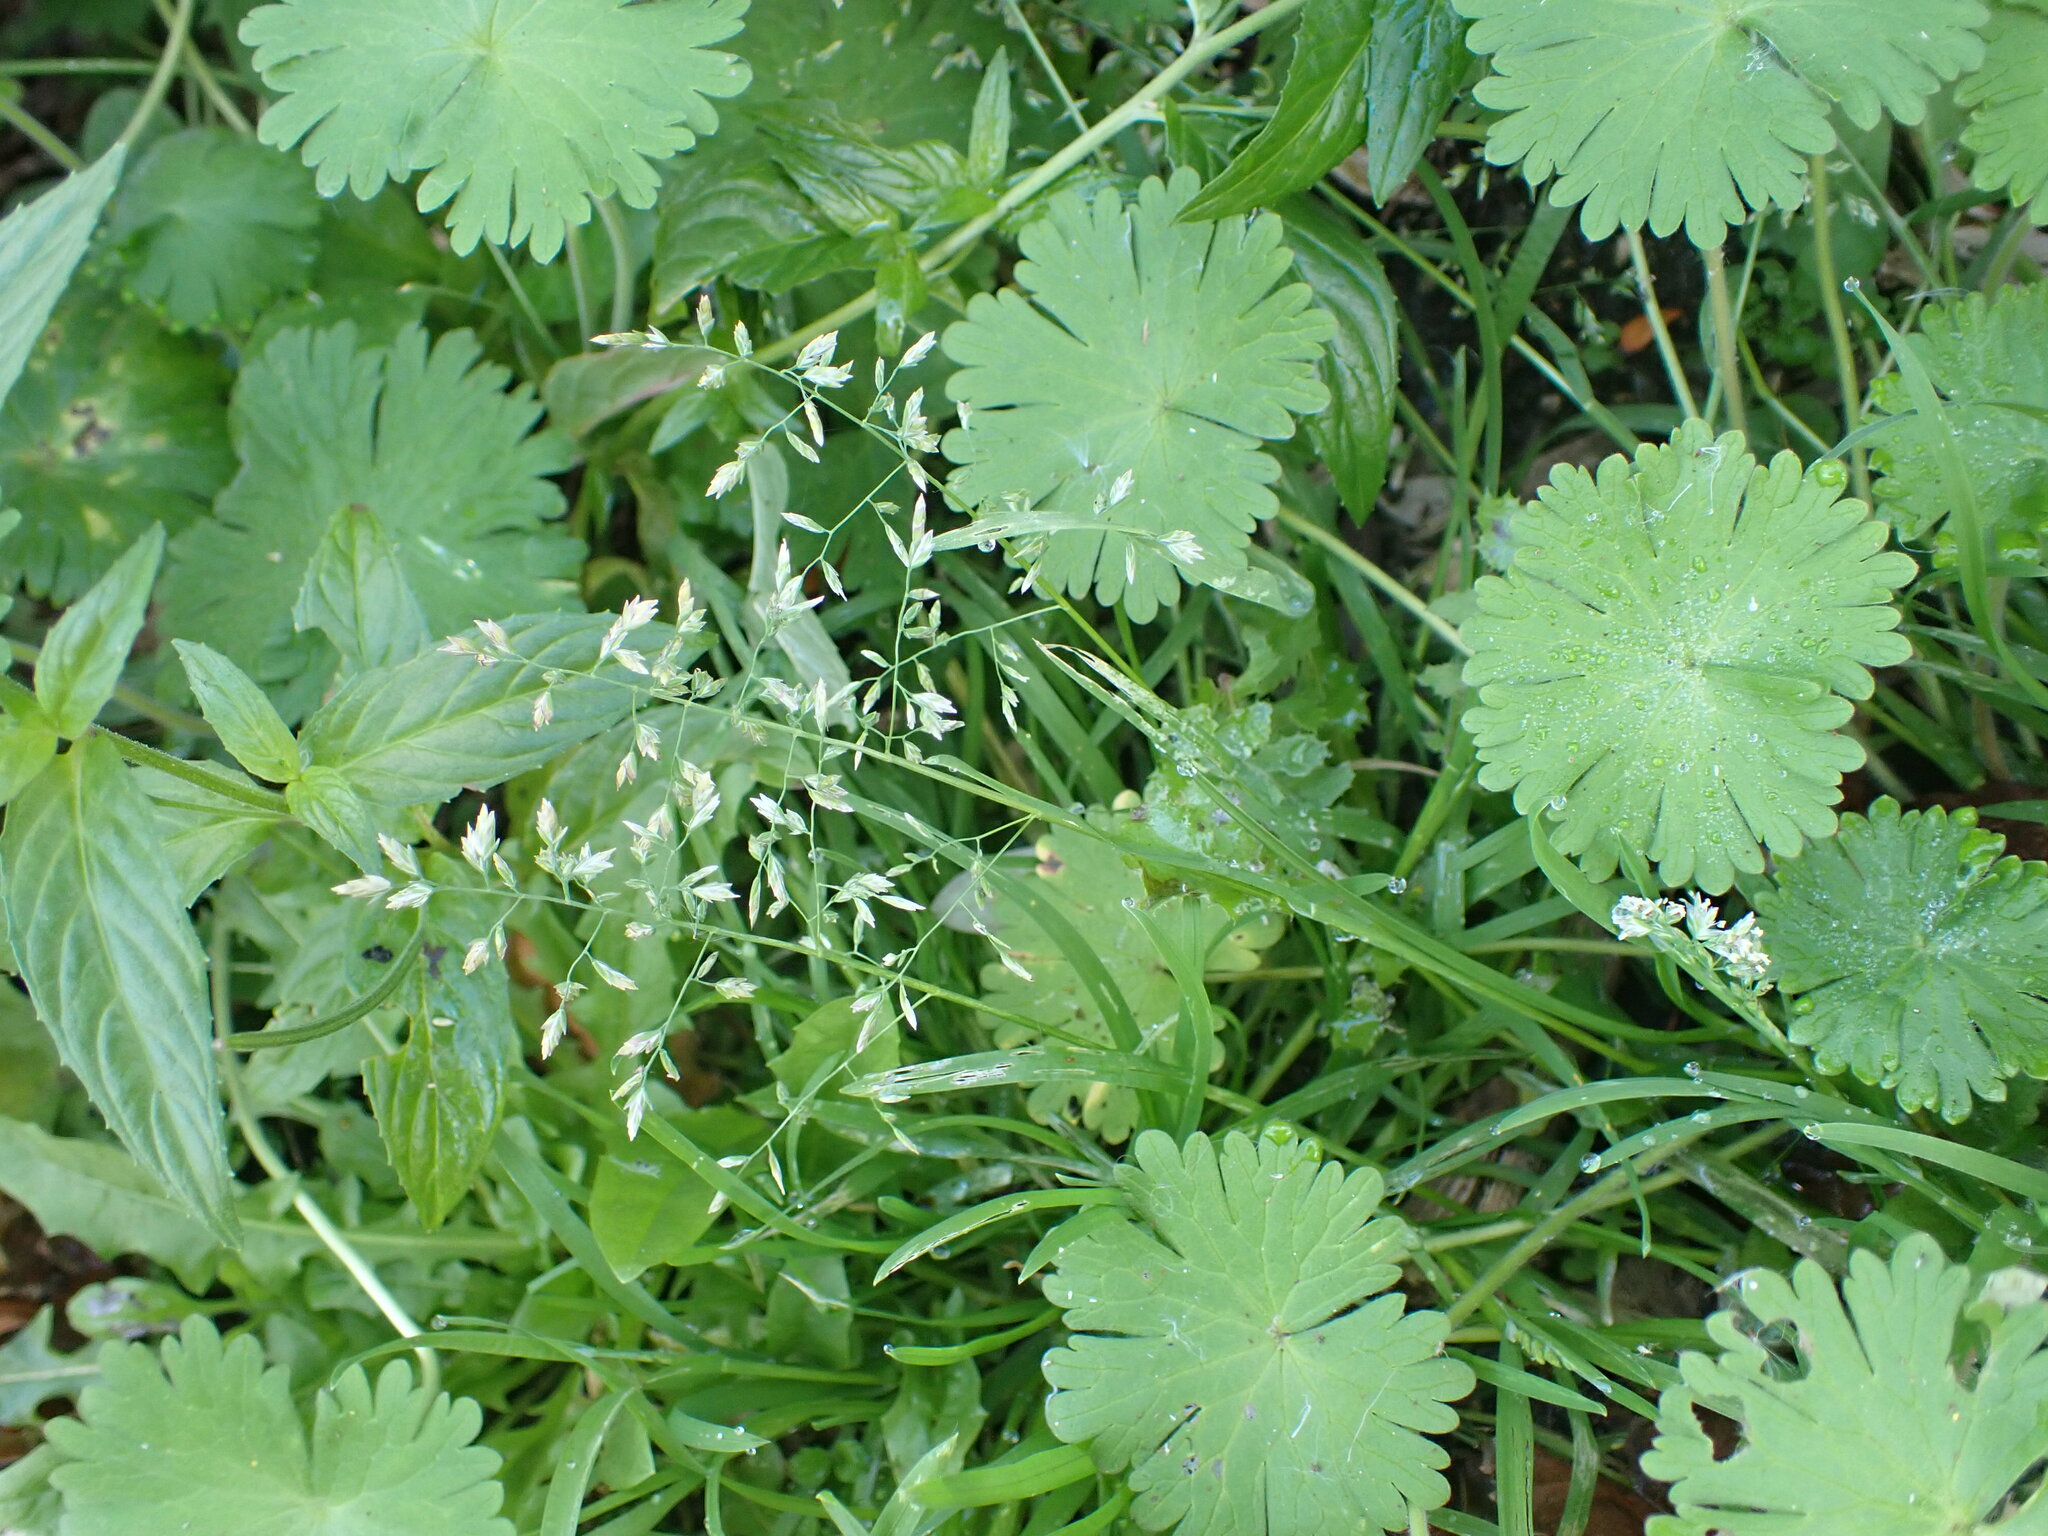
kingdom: Plantae
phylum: Tracheophyta
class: Liliopsida
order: Poales
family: Poaceae
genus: Poa
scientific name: Poa annua
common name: Annual bluegrass
